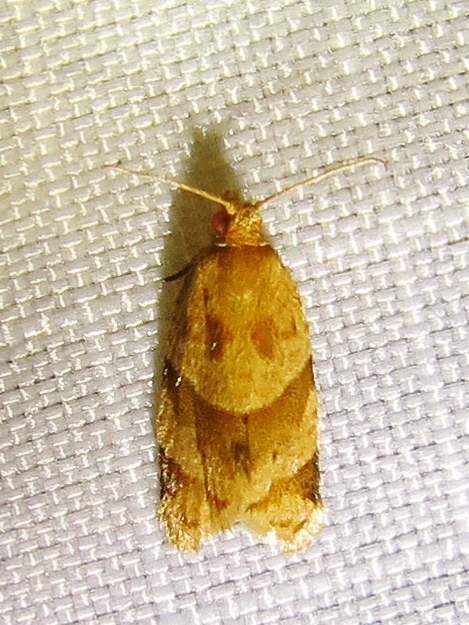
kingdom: Animalia
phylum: Arthropoda
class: Insecta
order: Lepidoptera
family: Tortricidae
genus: Clepsis
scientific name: Clepsis peritana
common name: Garden tortrix
